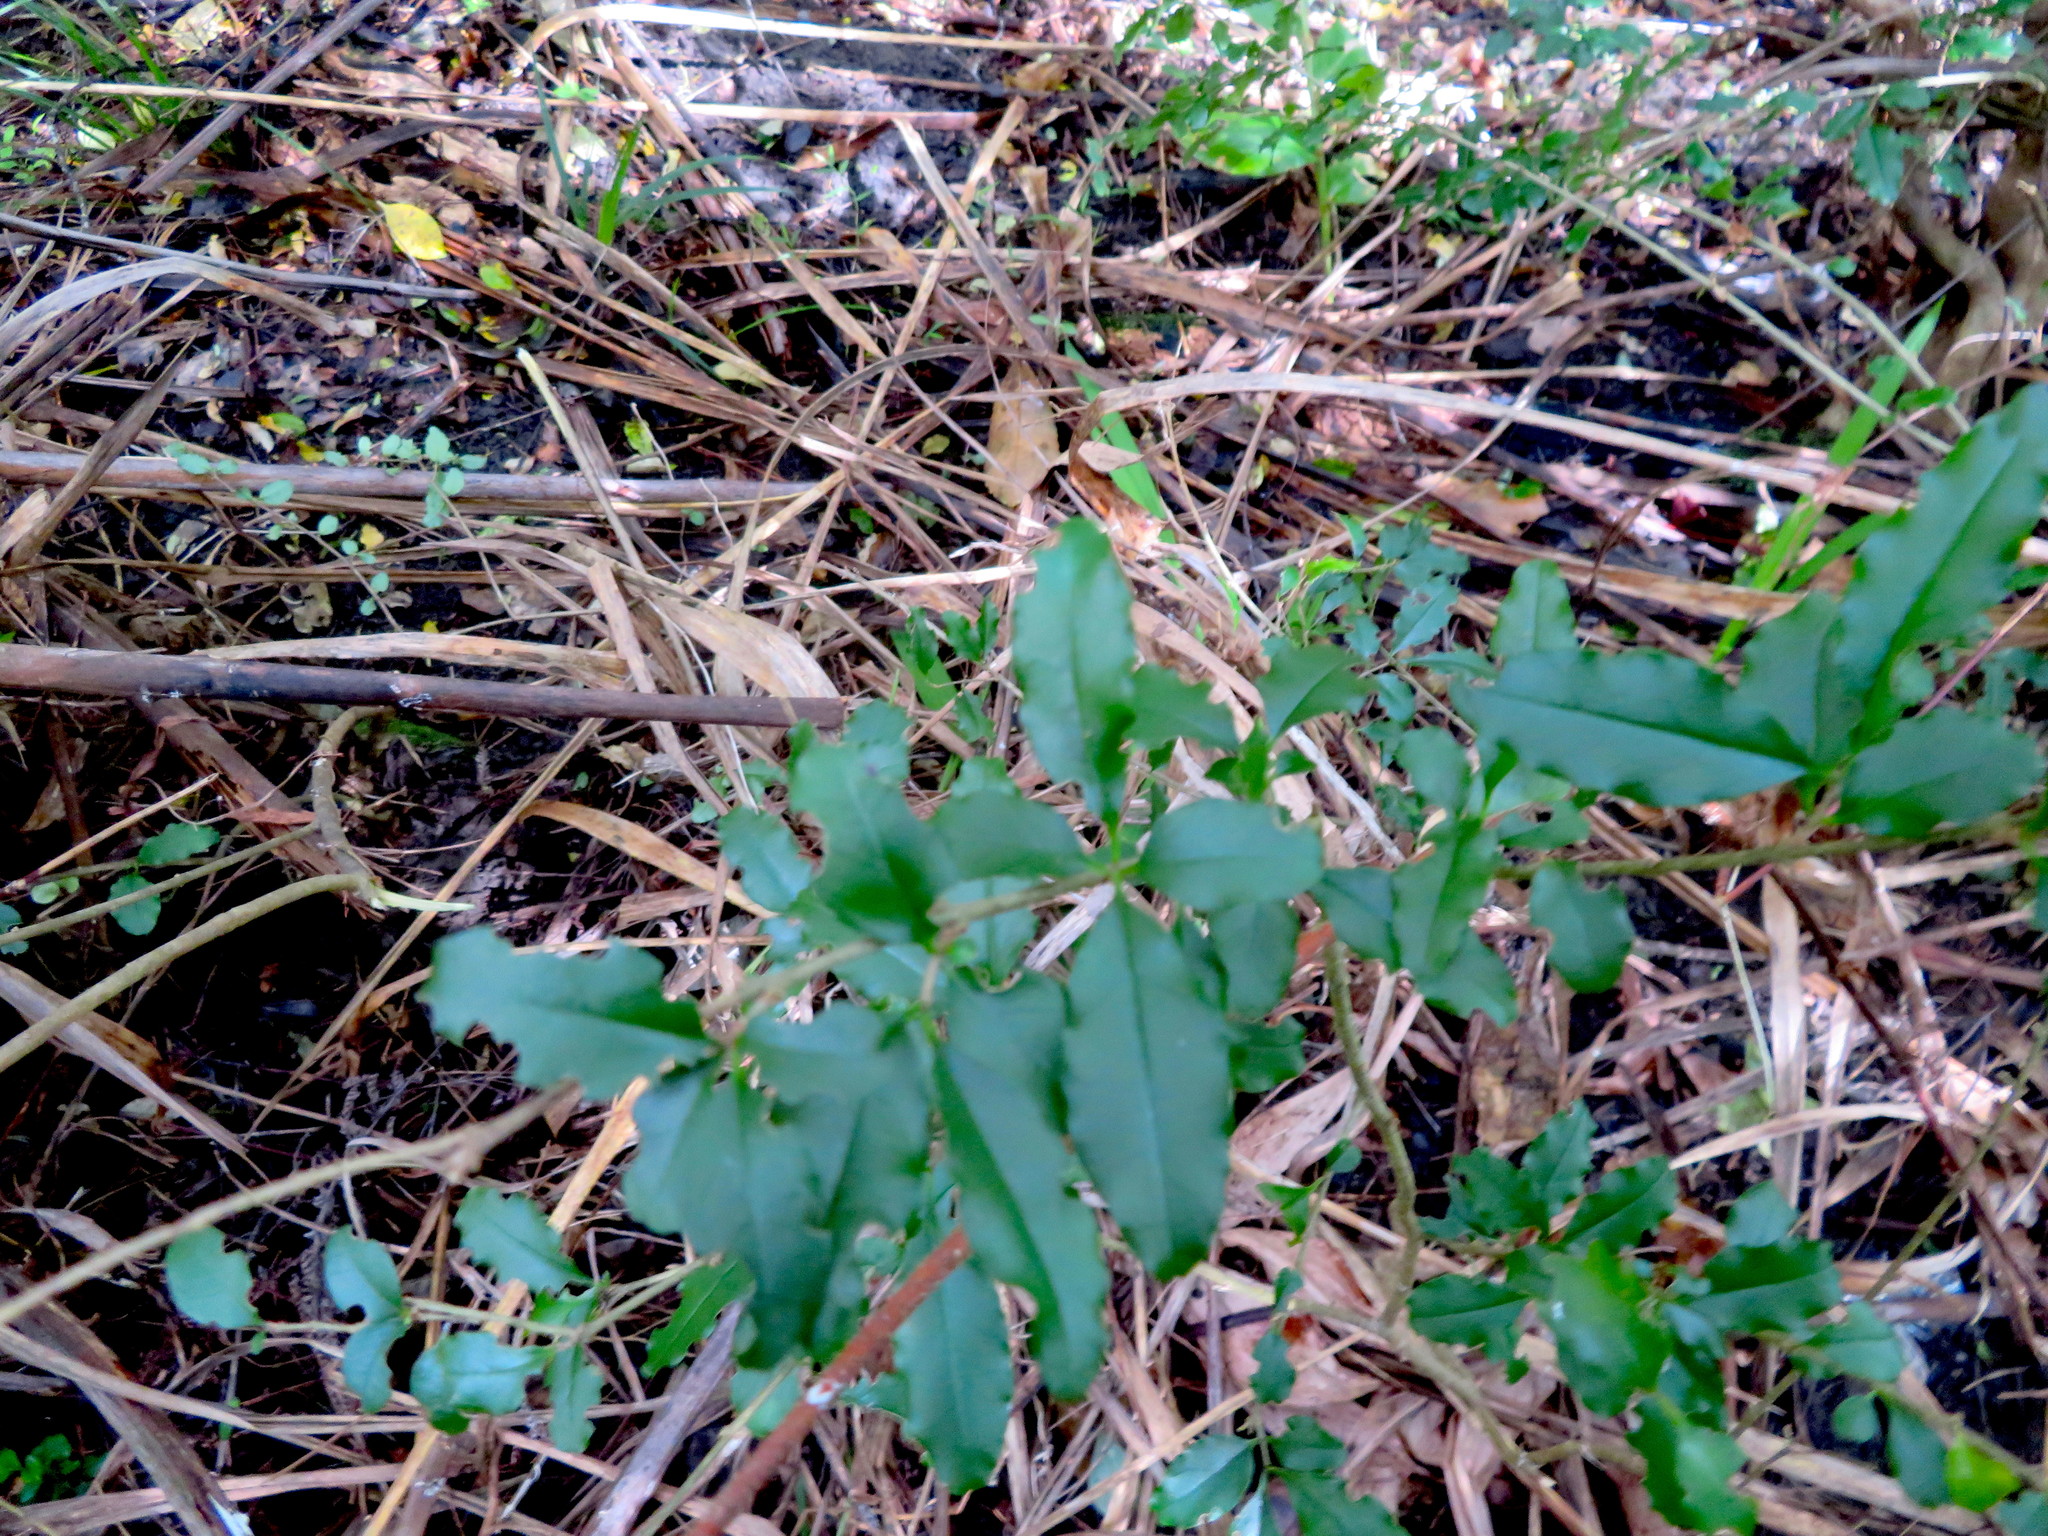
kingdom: Plantae
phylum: Tracheophyta
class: Magnoliopsida
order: Lamiales
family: Oleaceae
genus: Ligustrum
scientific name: Ligustrum sinense
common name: Chinese privet
